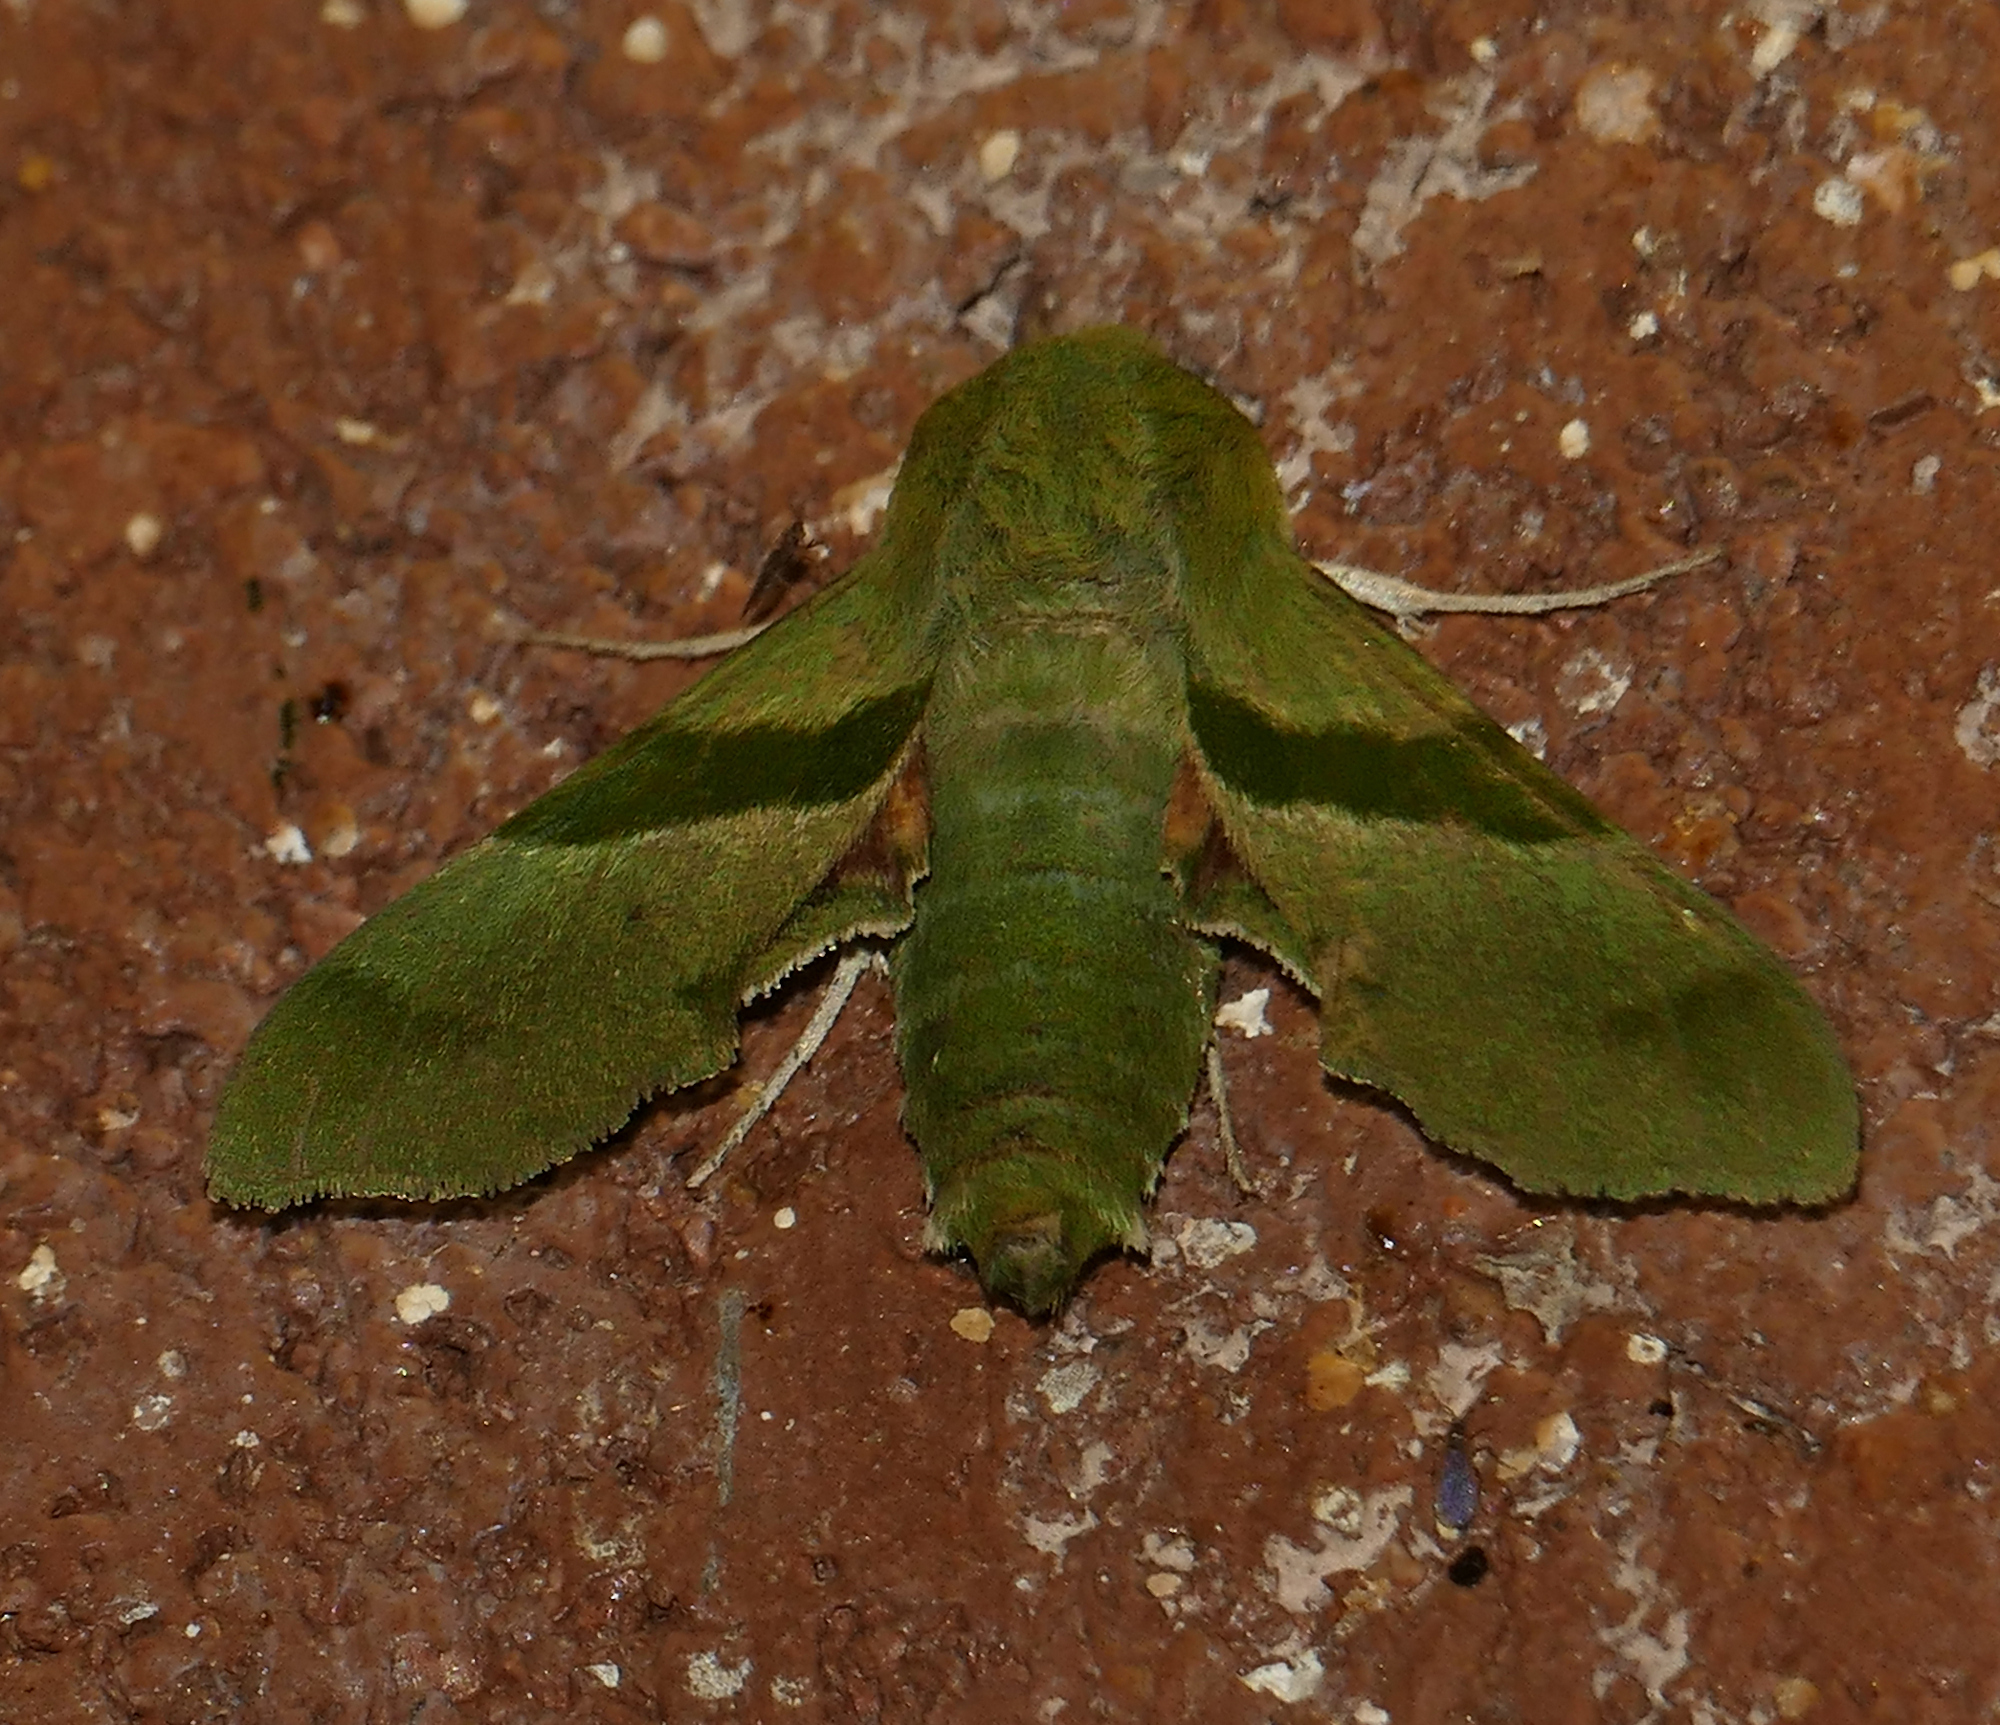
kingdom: Animalia
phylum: Arthropoda
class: Insecta
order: Lepidoptera
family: Sphingidae
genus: Proserpinus
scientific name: Proserpinus terlooii
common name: Terloo's sphinx
